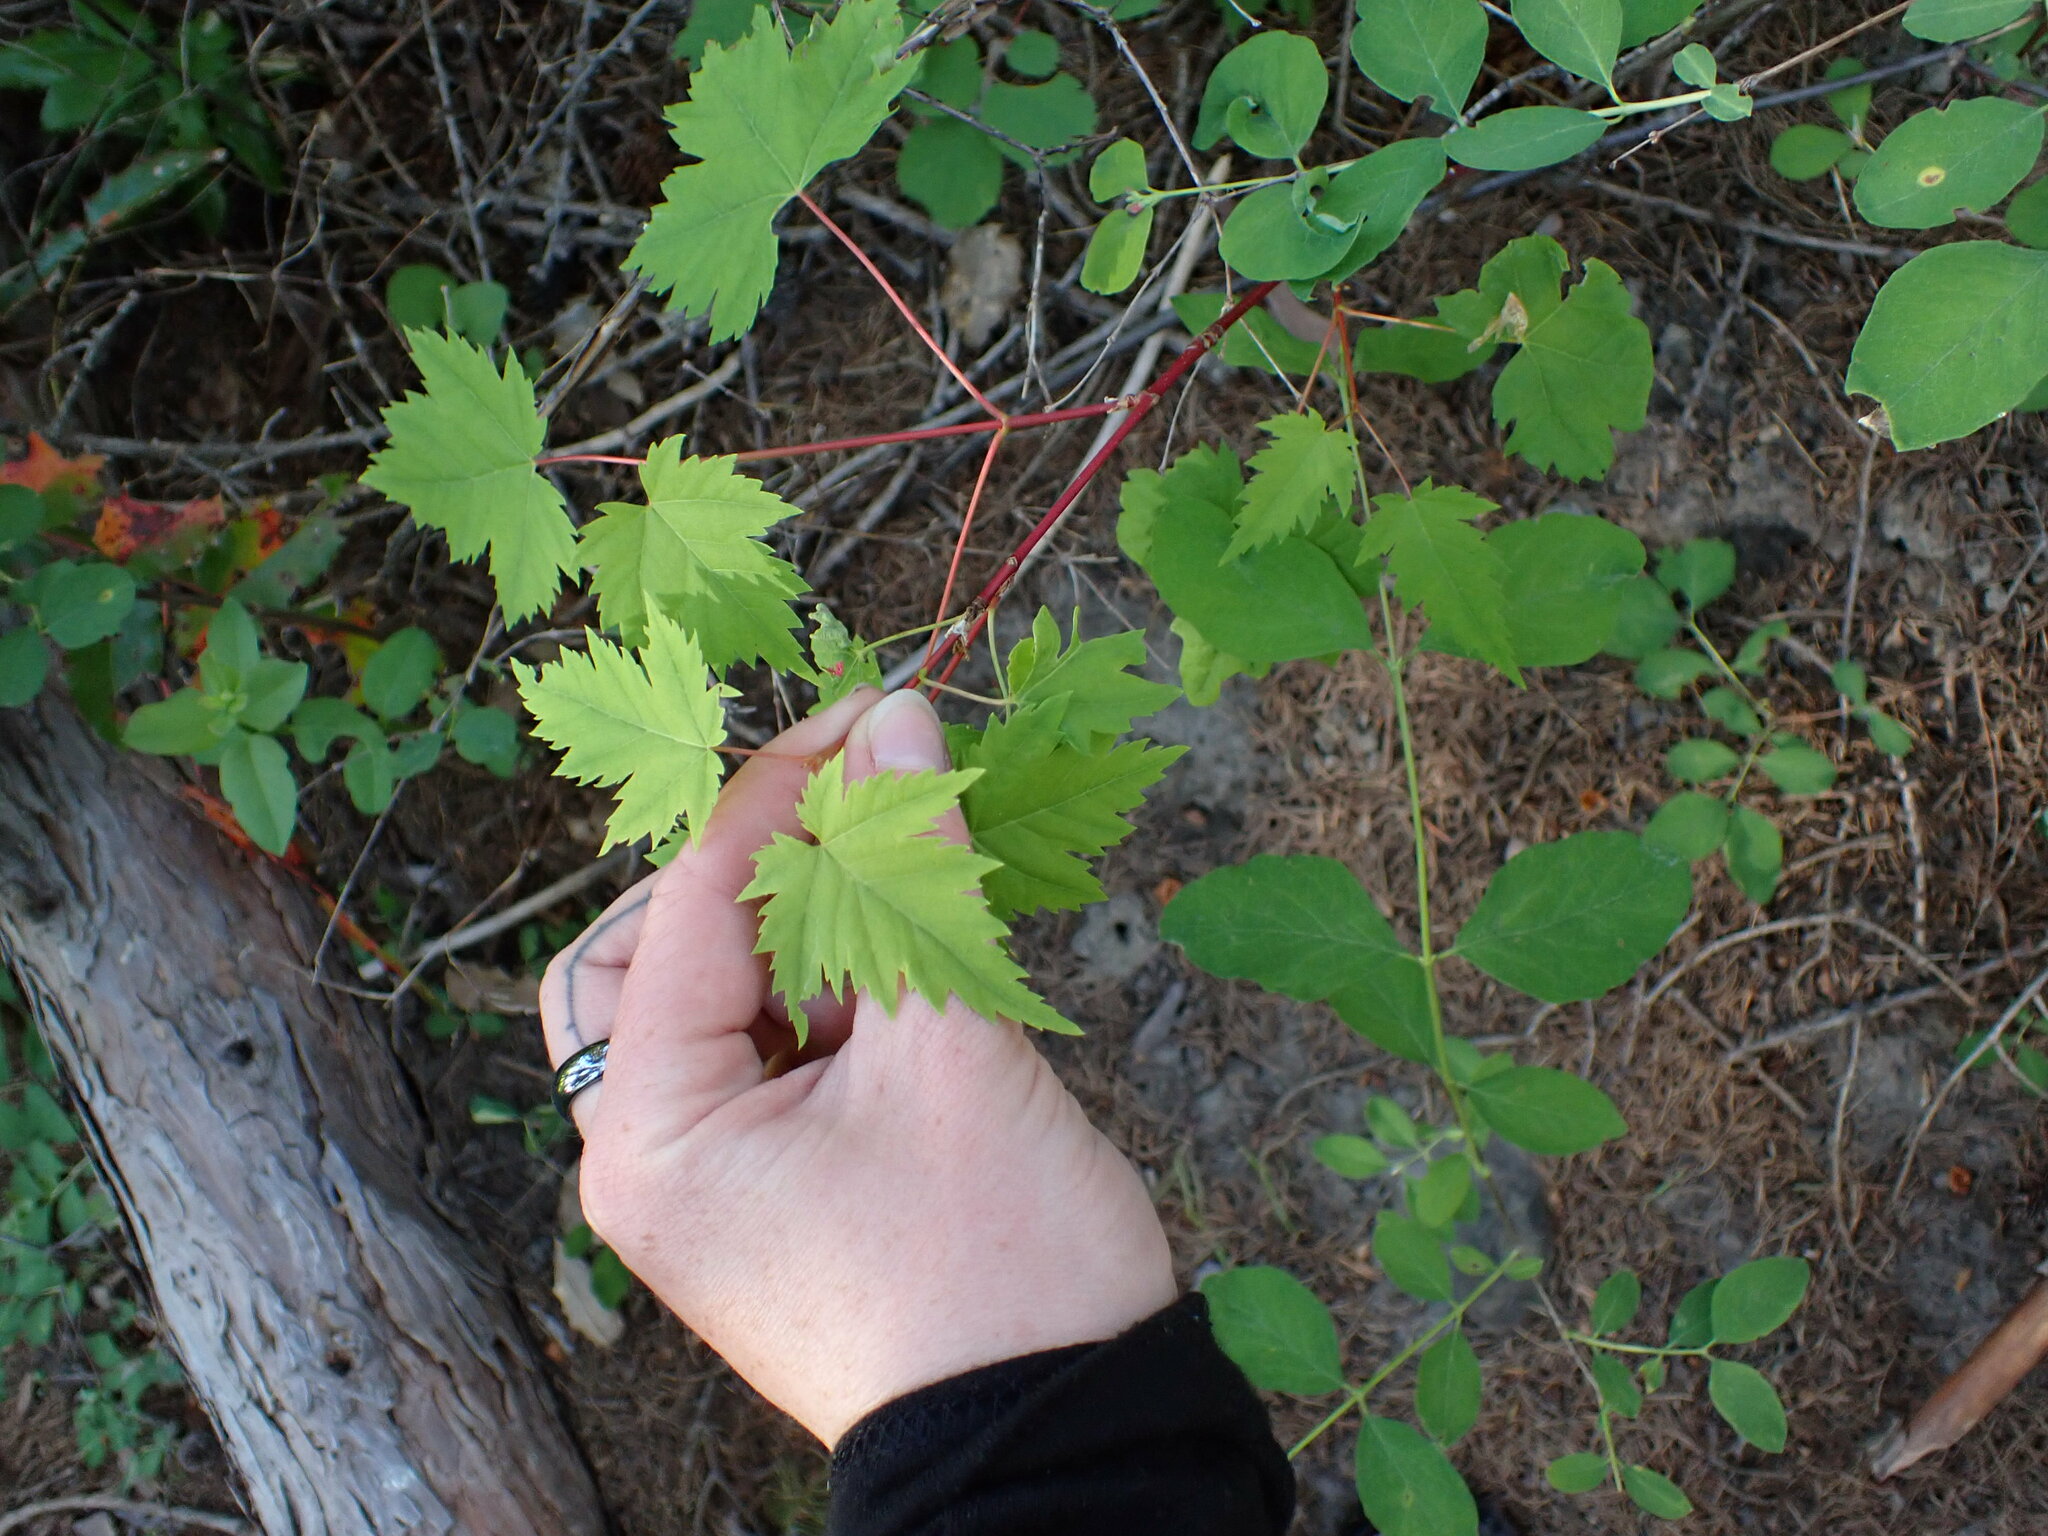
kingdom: Plantae
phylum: Tracheophyta
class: Magnoliopsida
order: Sapindales
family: Sapindaceae
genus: Acer
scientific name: Acer glabrum
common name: Rocky mountain maple
